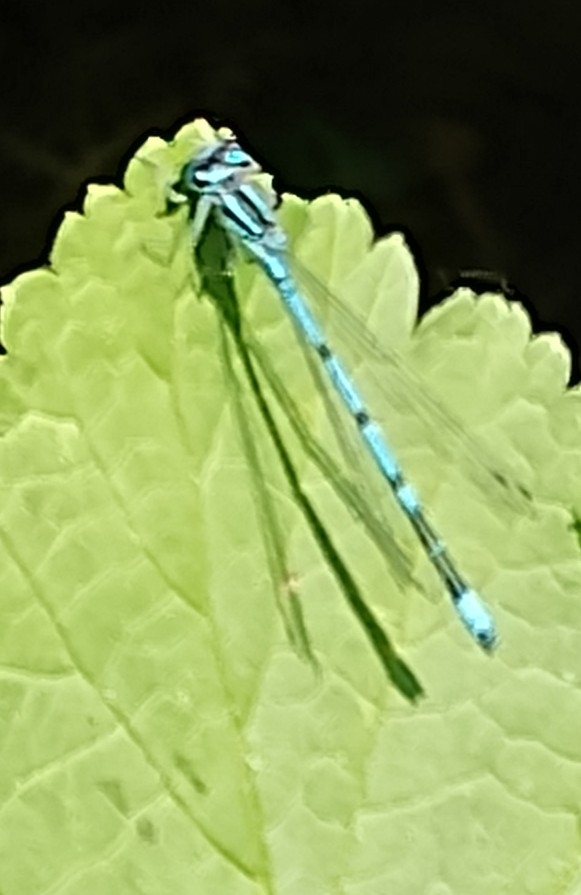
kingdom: Animalia
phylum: Arthropoda
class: Insecta
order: Odonata
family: Coenagrionidae
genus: Coenagrion
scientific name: Coenagrion puella
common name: Azure damselfly
